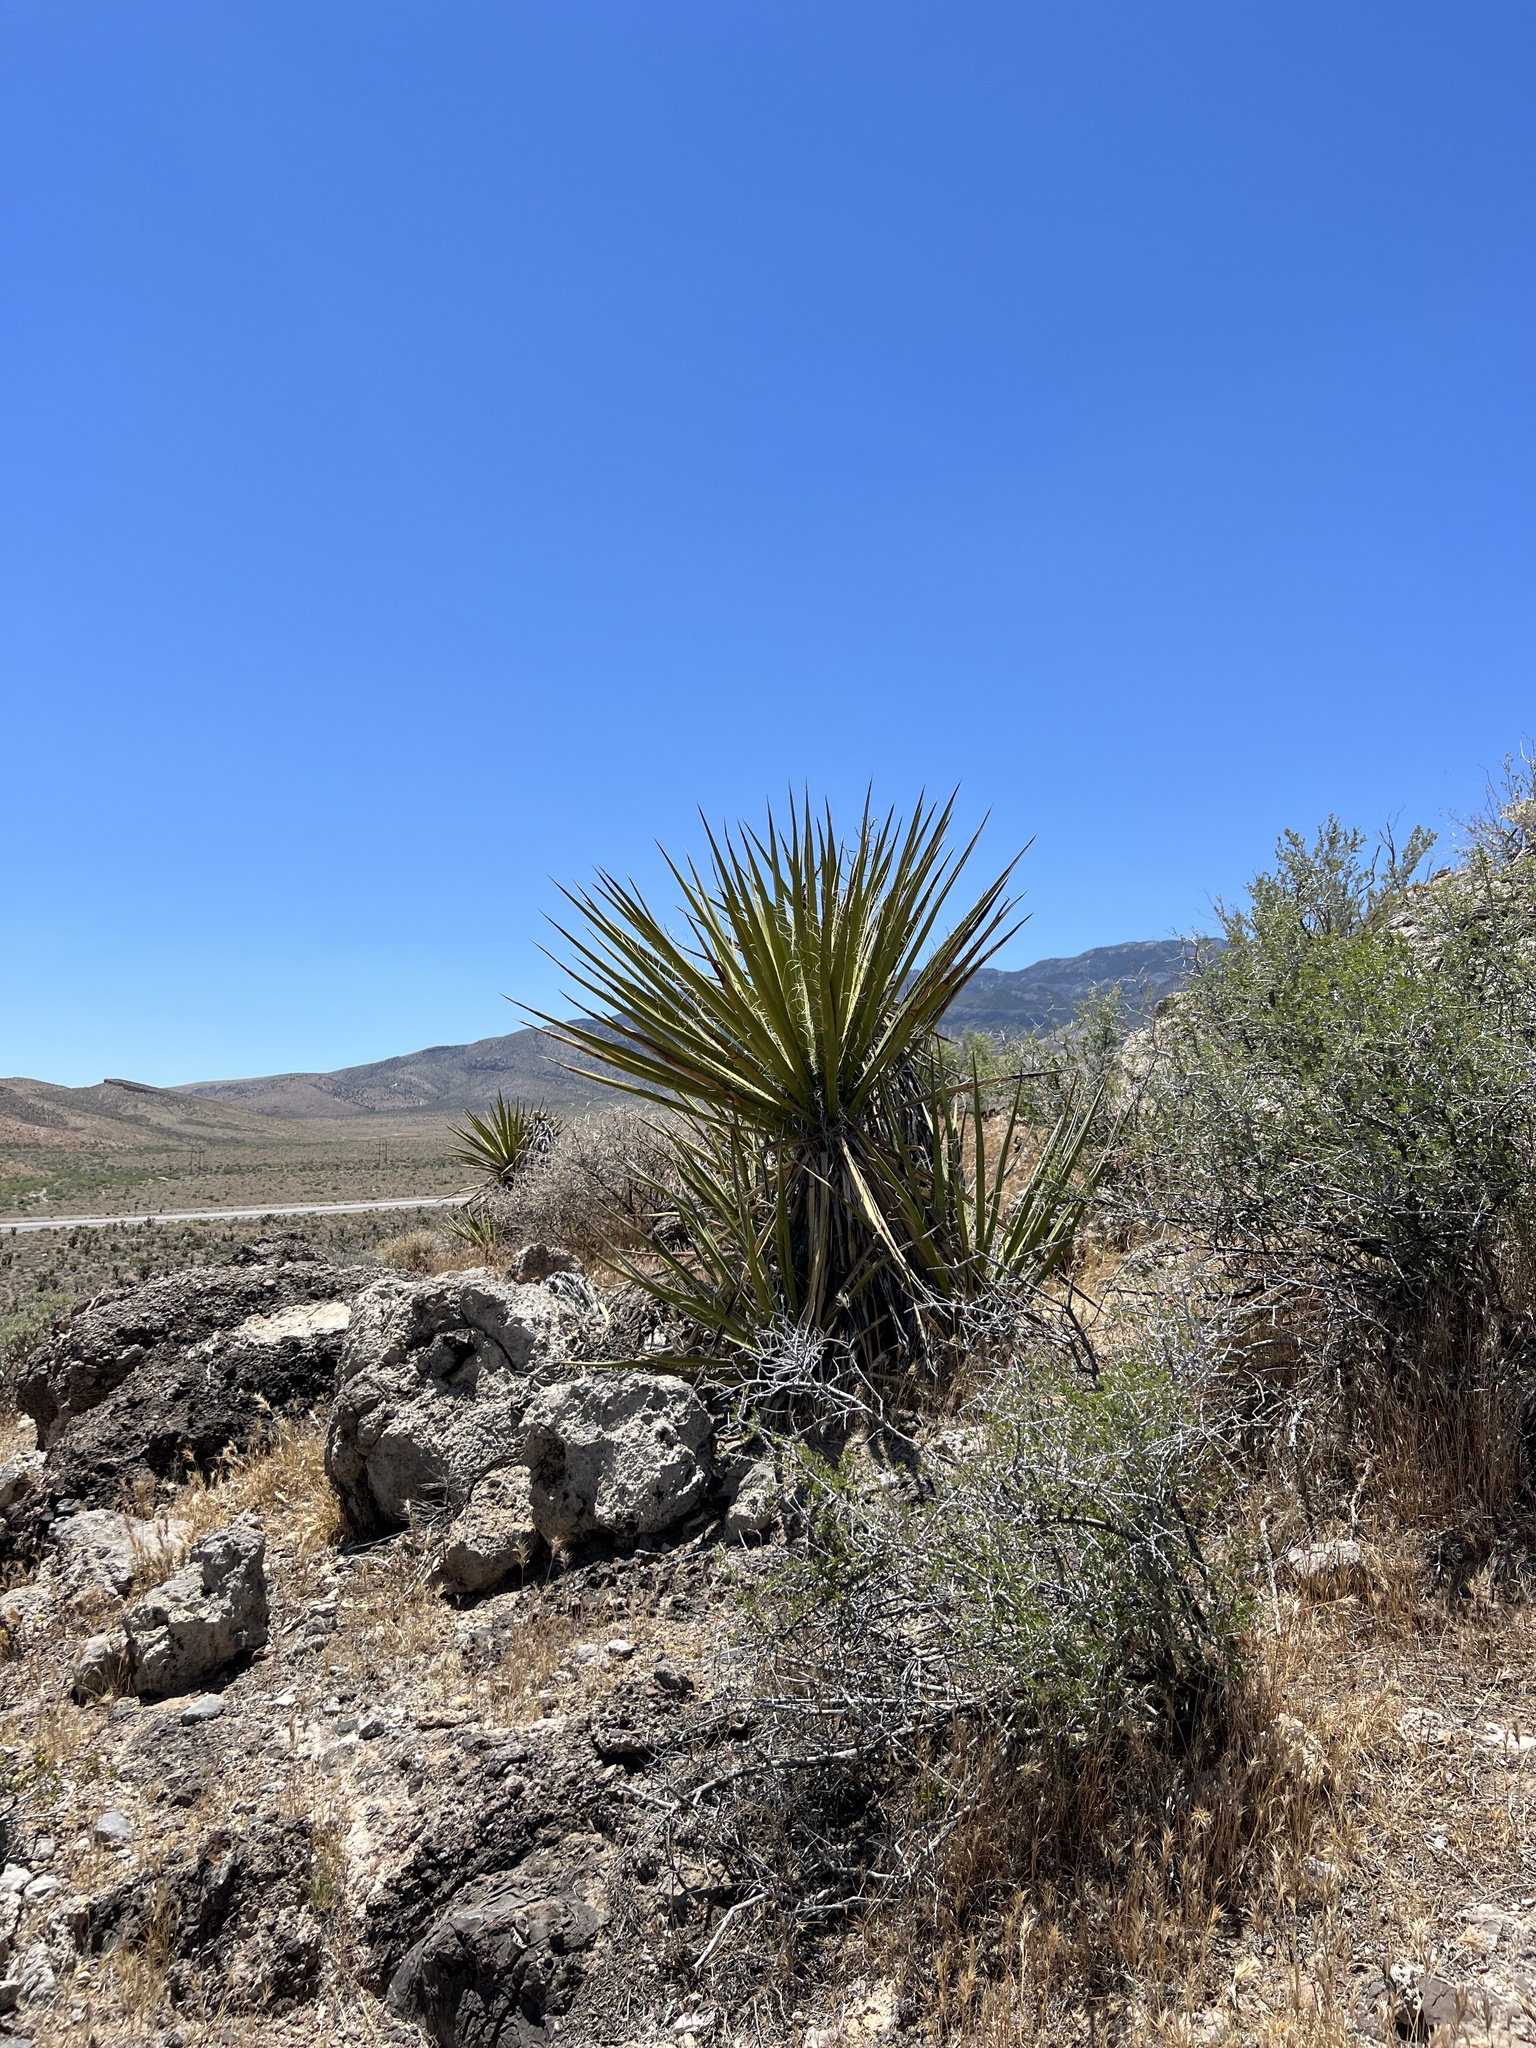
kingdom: Plantae
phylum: Tracheophyta
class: Liliopsida
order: Asparagales
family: Asparagaceae
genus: Yucca
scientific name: Yucca schidigera
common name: Mojave yucca
